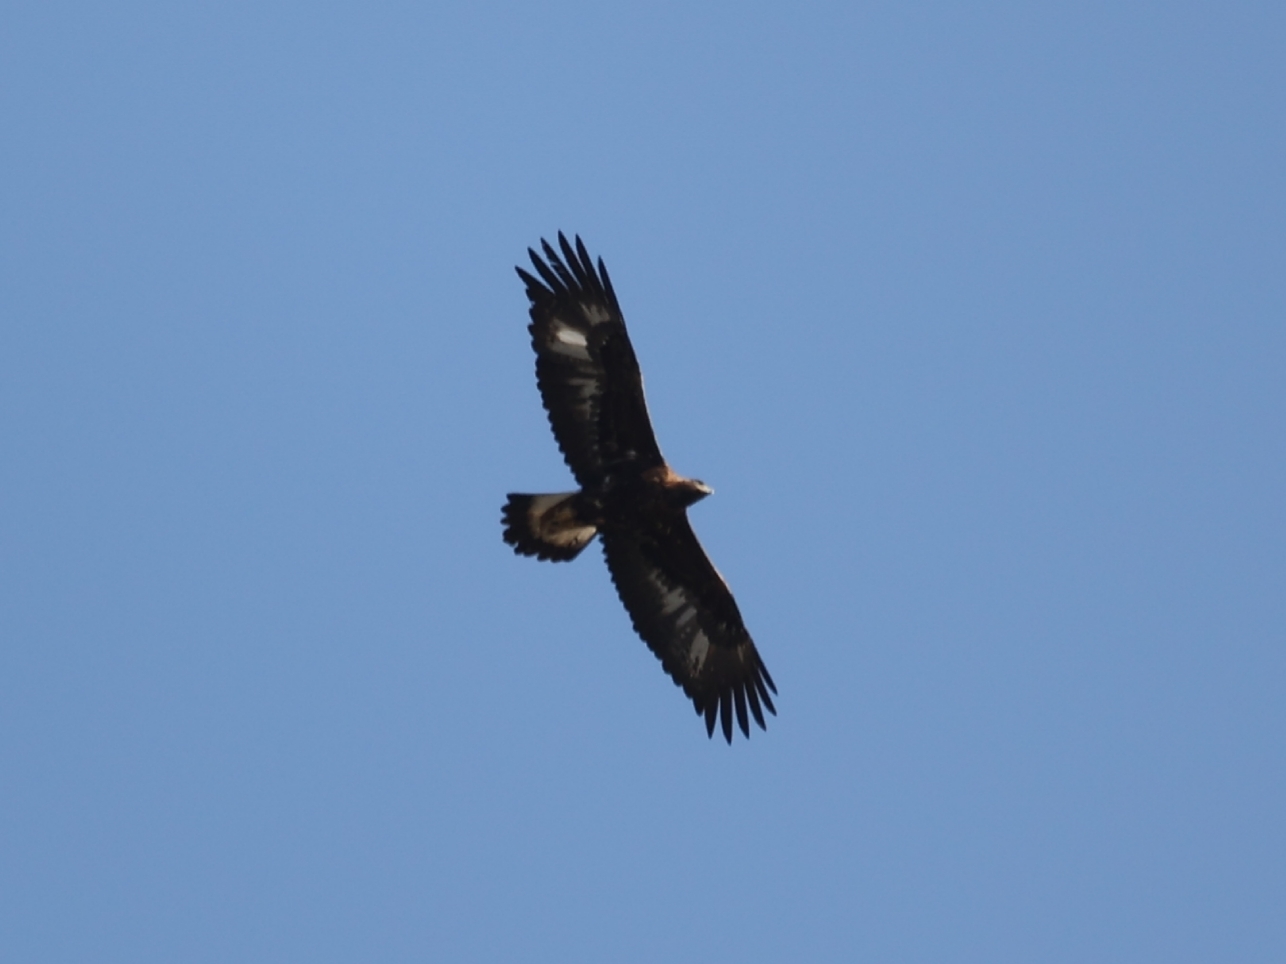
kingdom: Animalia
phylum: Chordata
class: Aves
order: Accipitriformes
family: Accipitridae
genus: Aquila
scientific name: Aquila chrysaetos
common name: Golden eagle
